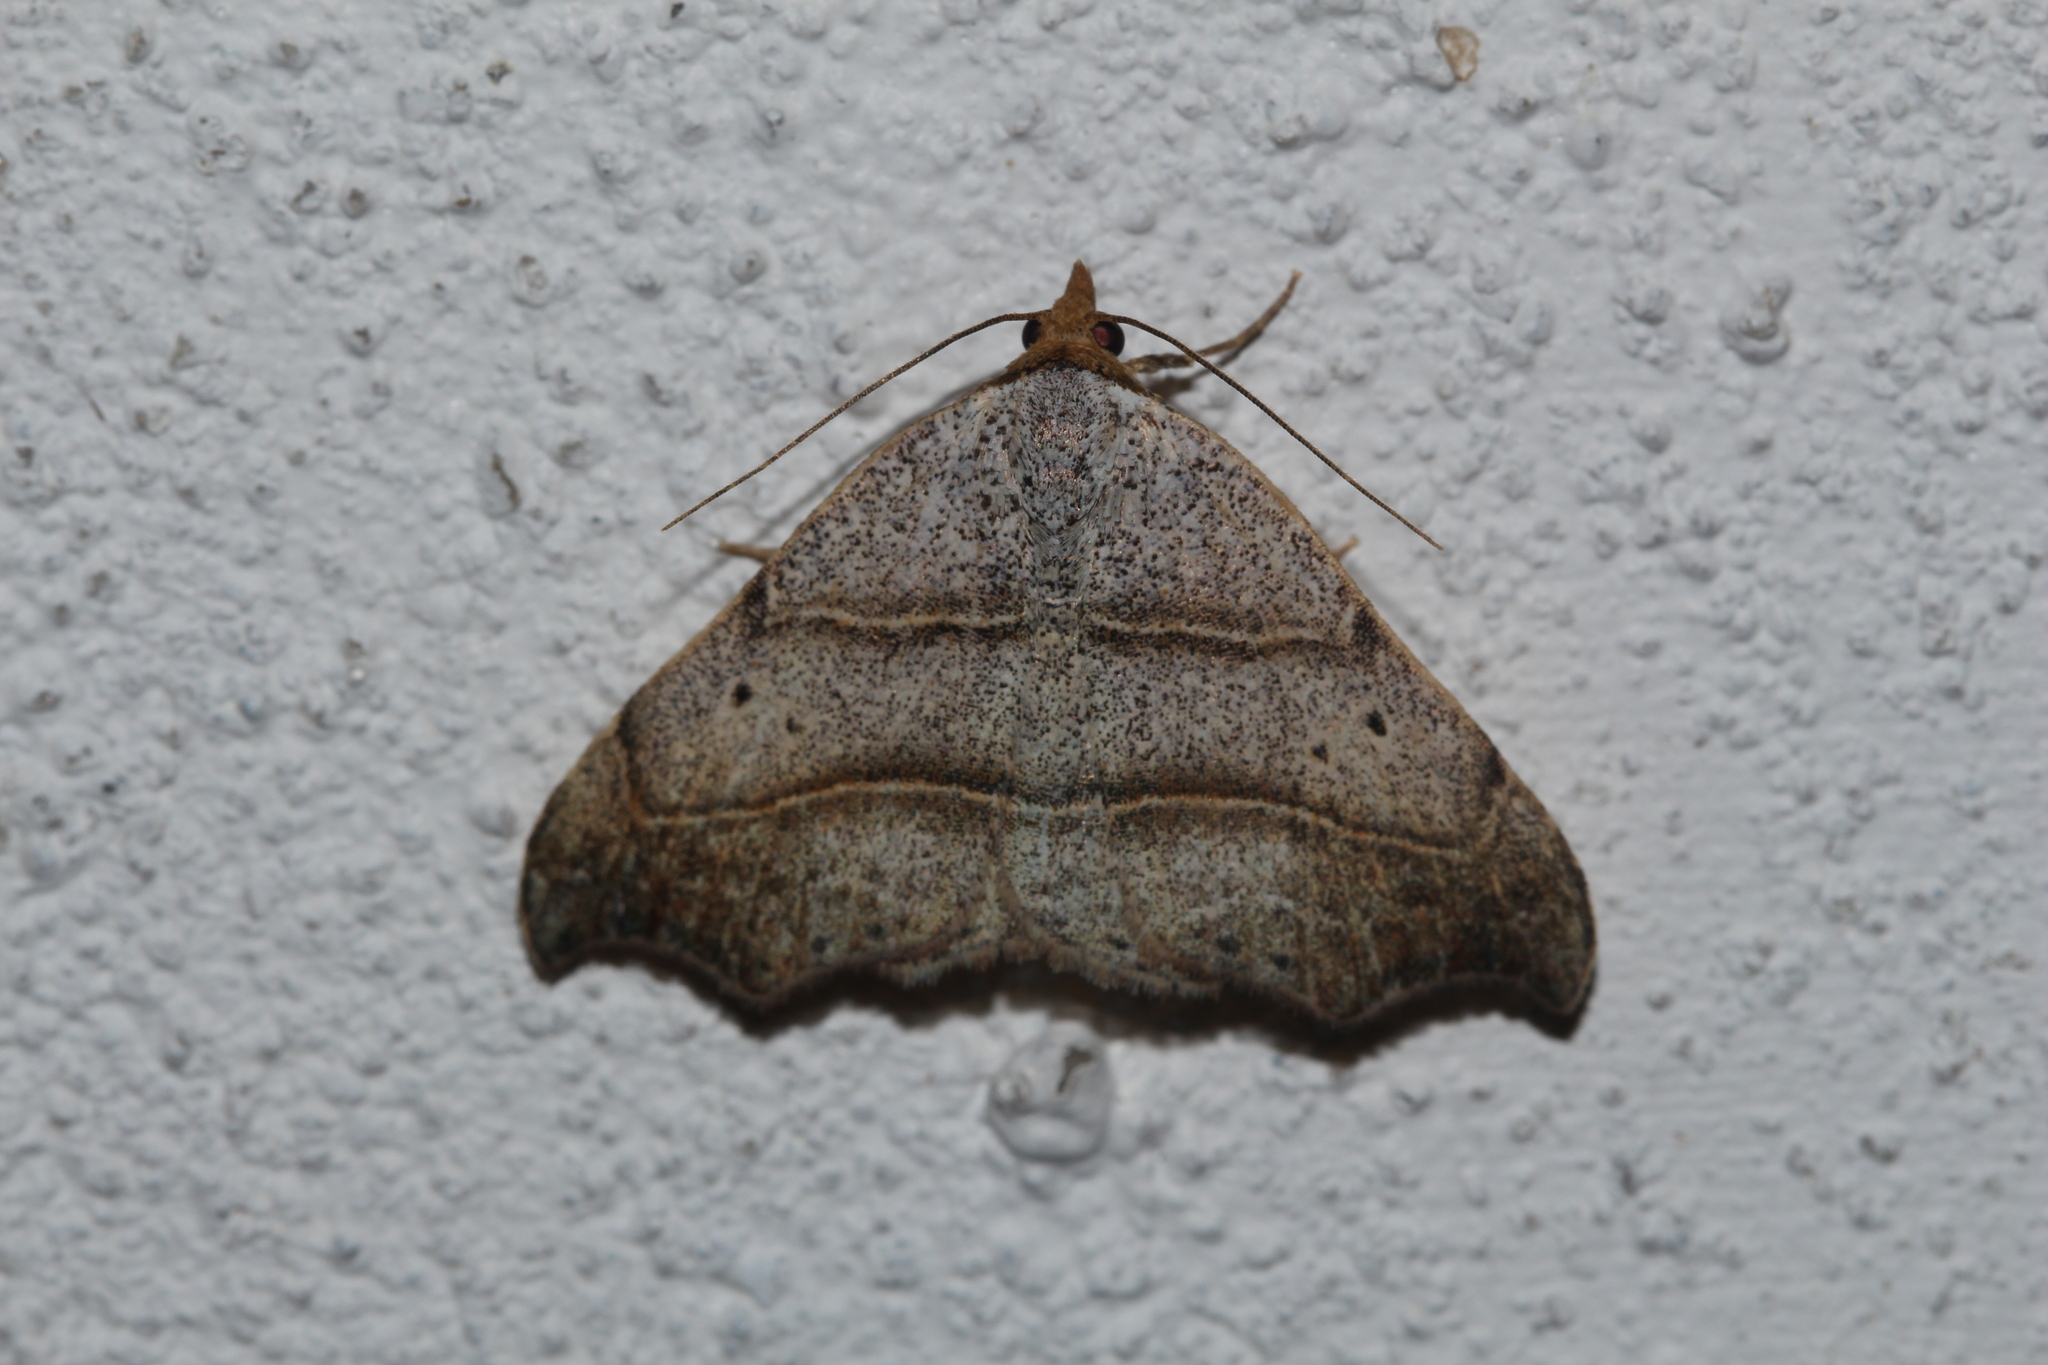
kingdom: Animalia
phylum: Arthropoda
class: Insecta
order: Lepidoptera
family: Erebidae
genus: Laspeyria
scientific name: Laspeyria flexula
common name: Beautiful hook-tip
